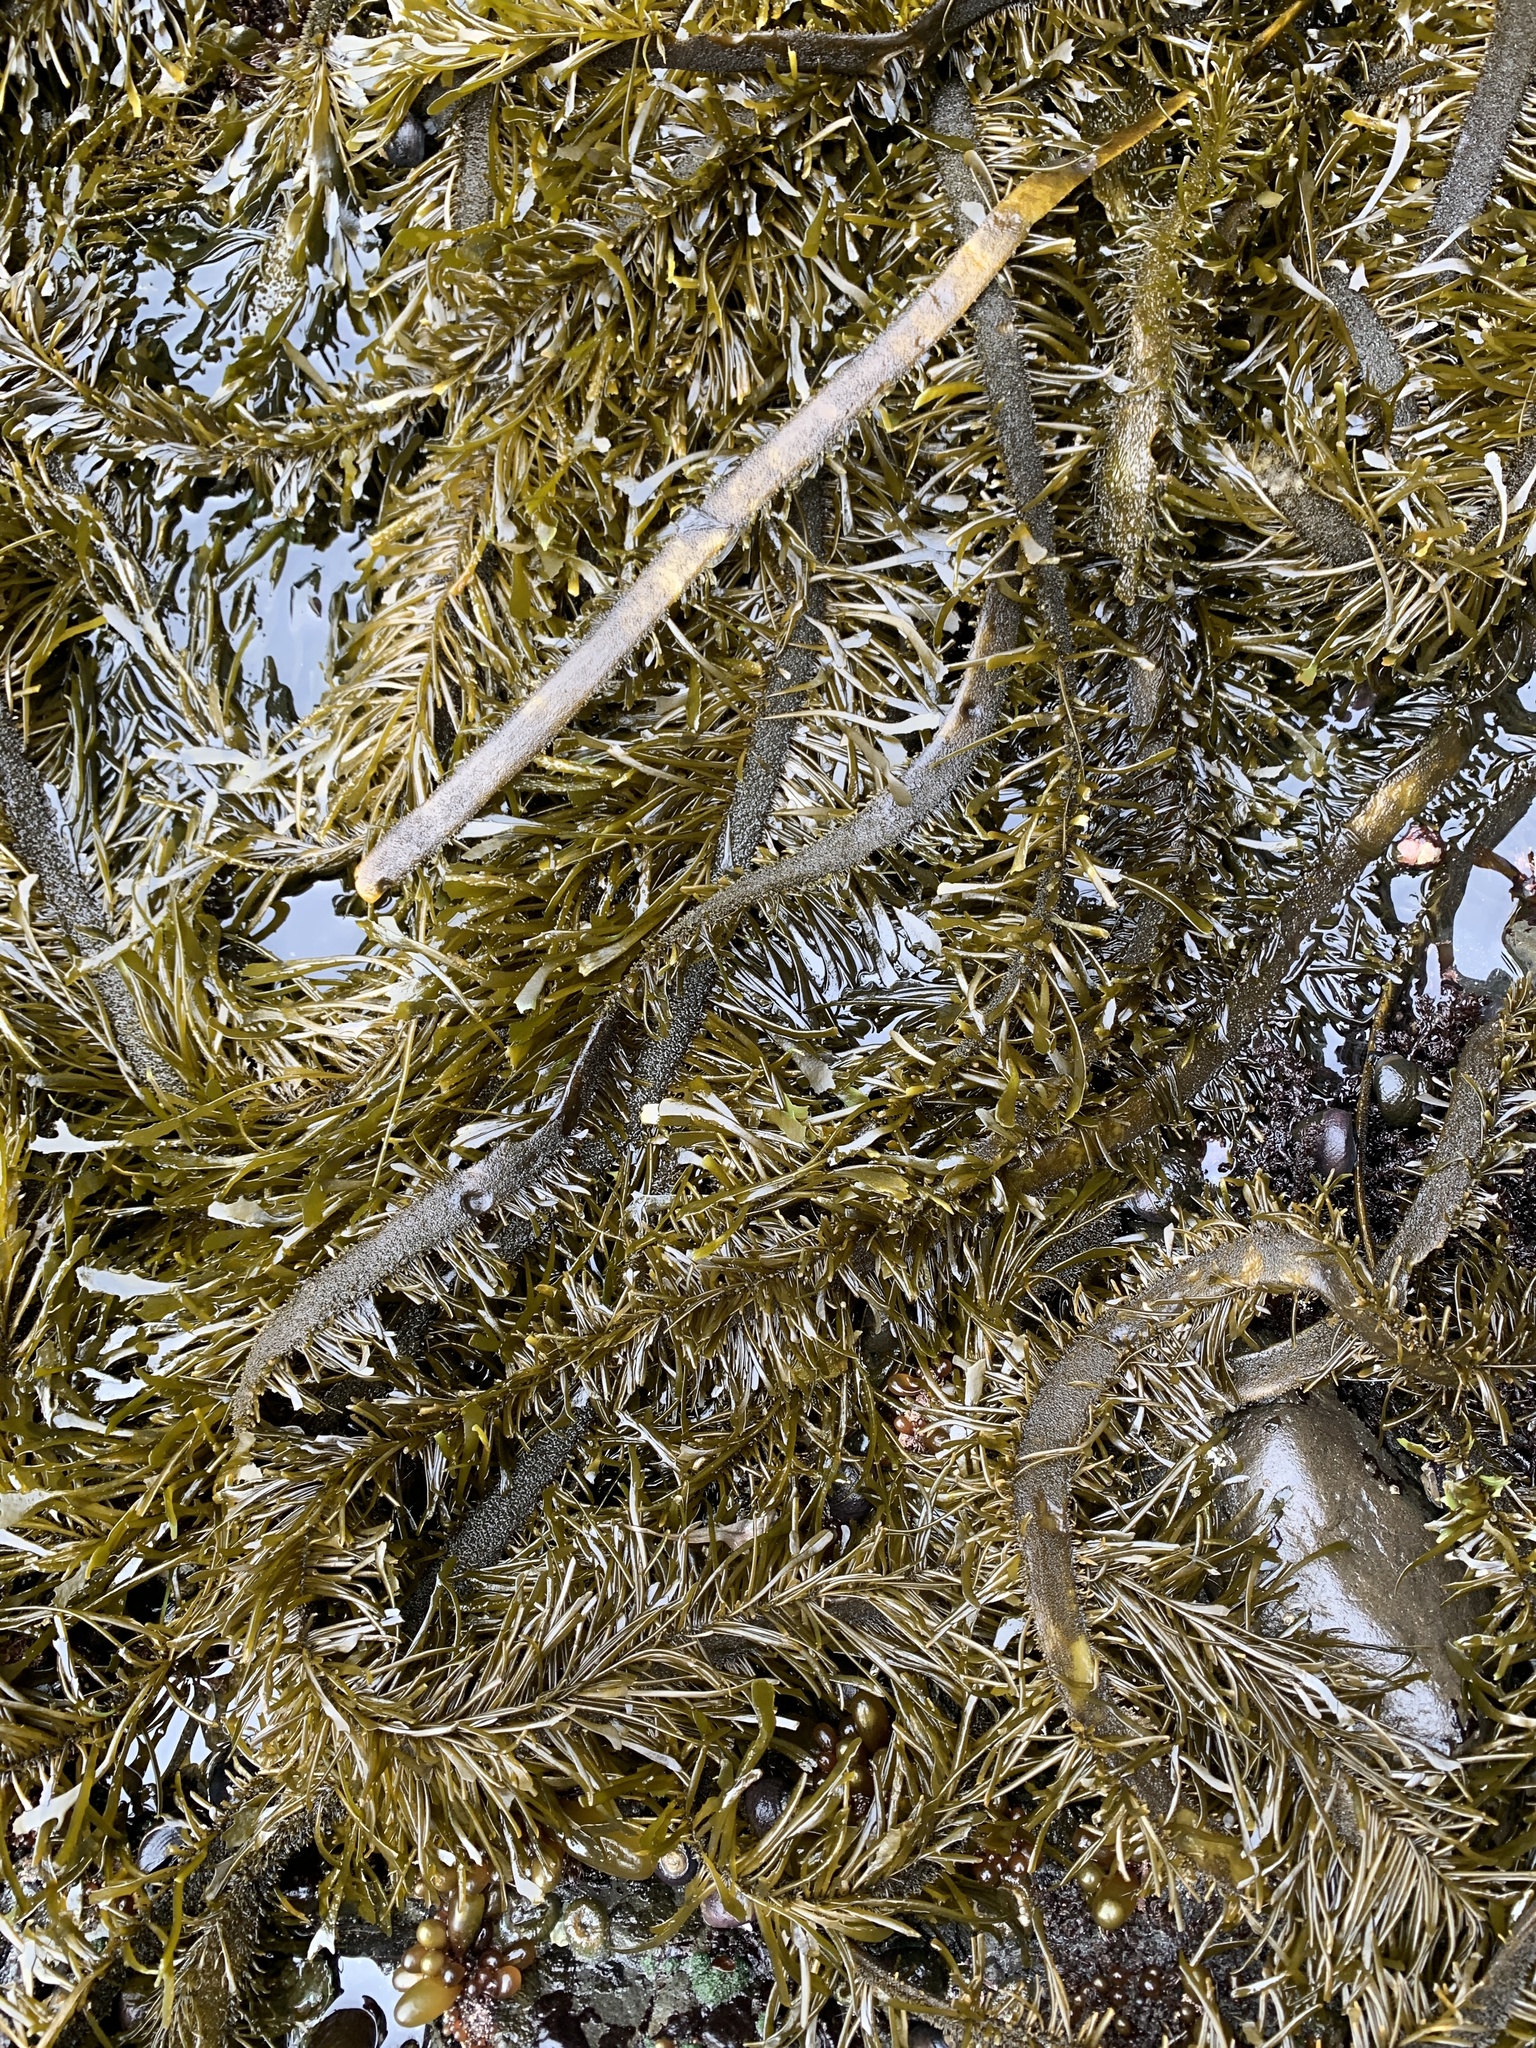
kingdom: Chromista
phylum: Ochrophyta
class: Phaeophyceae
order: Laminariales
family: Lessoniaceae
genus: Egregia
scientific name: Egregia menziesii
